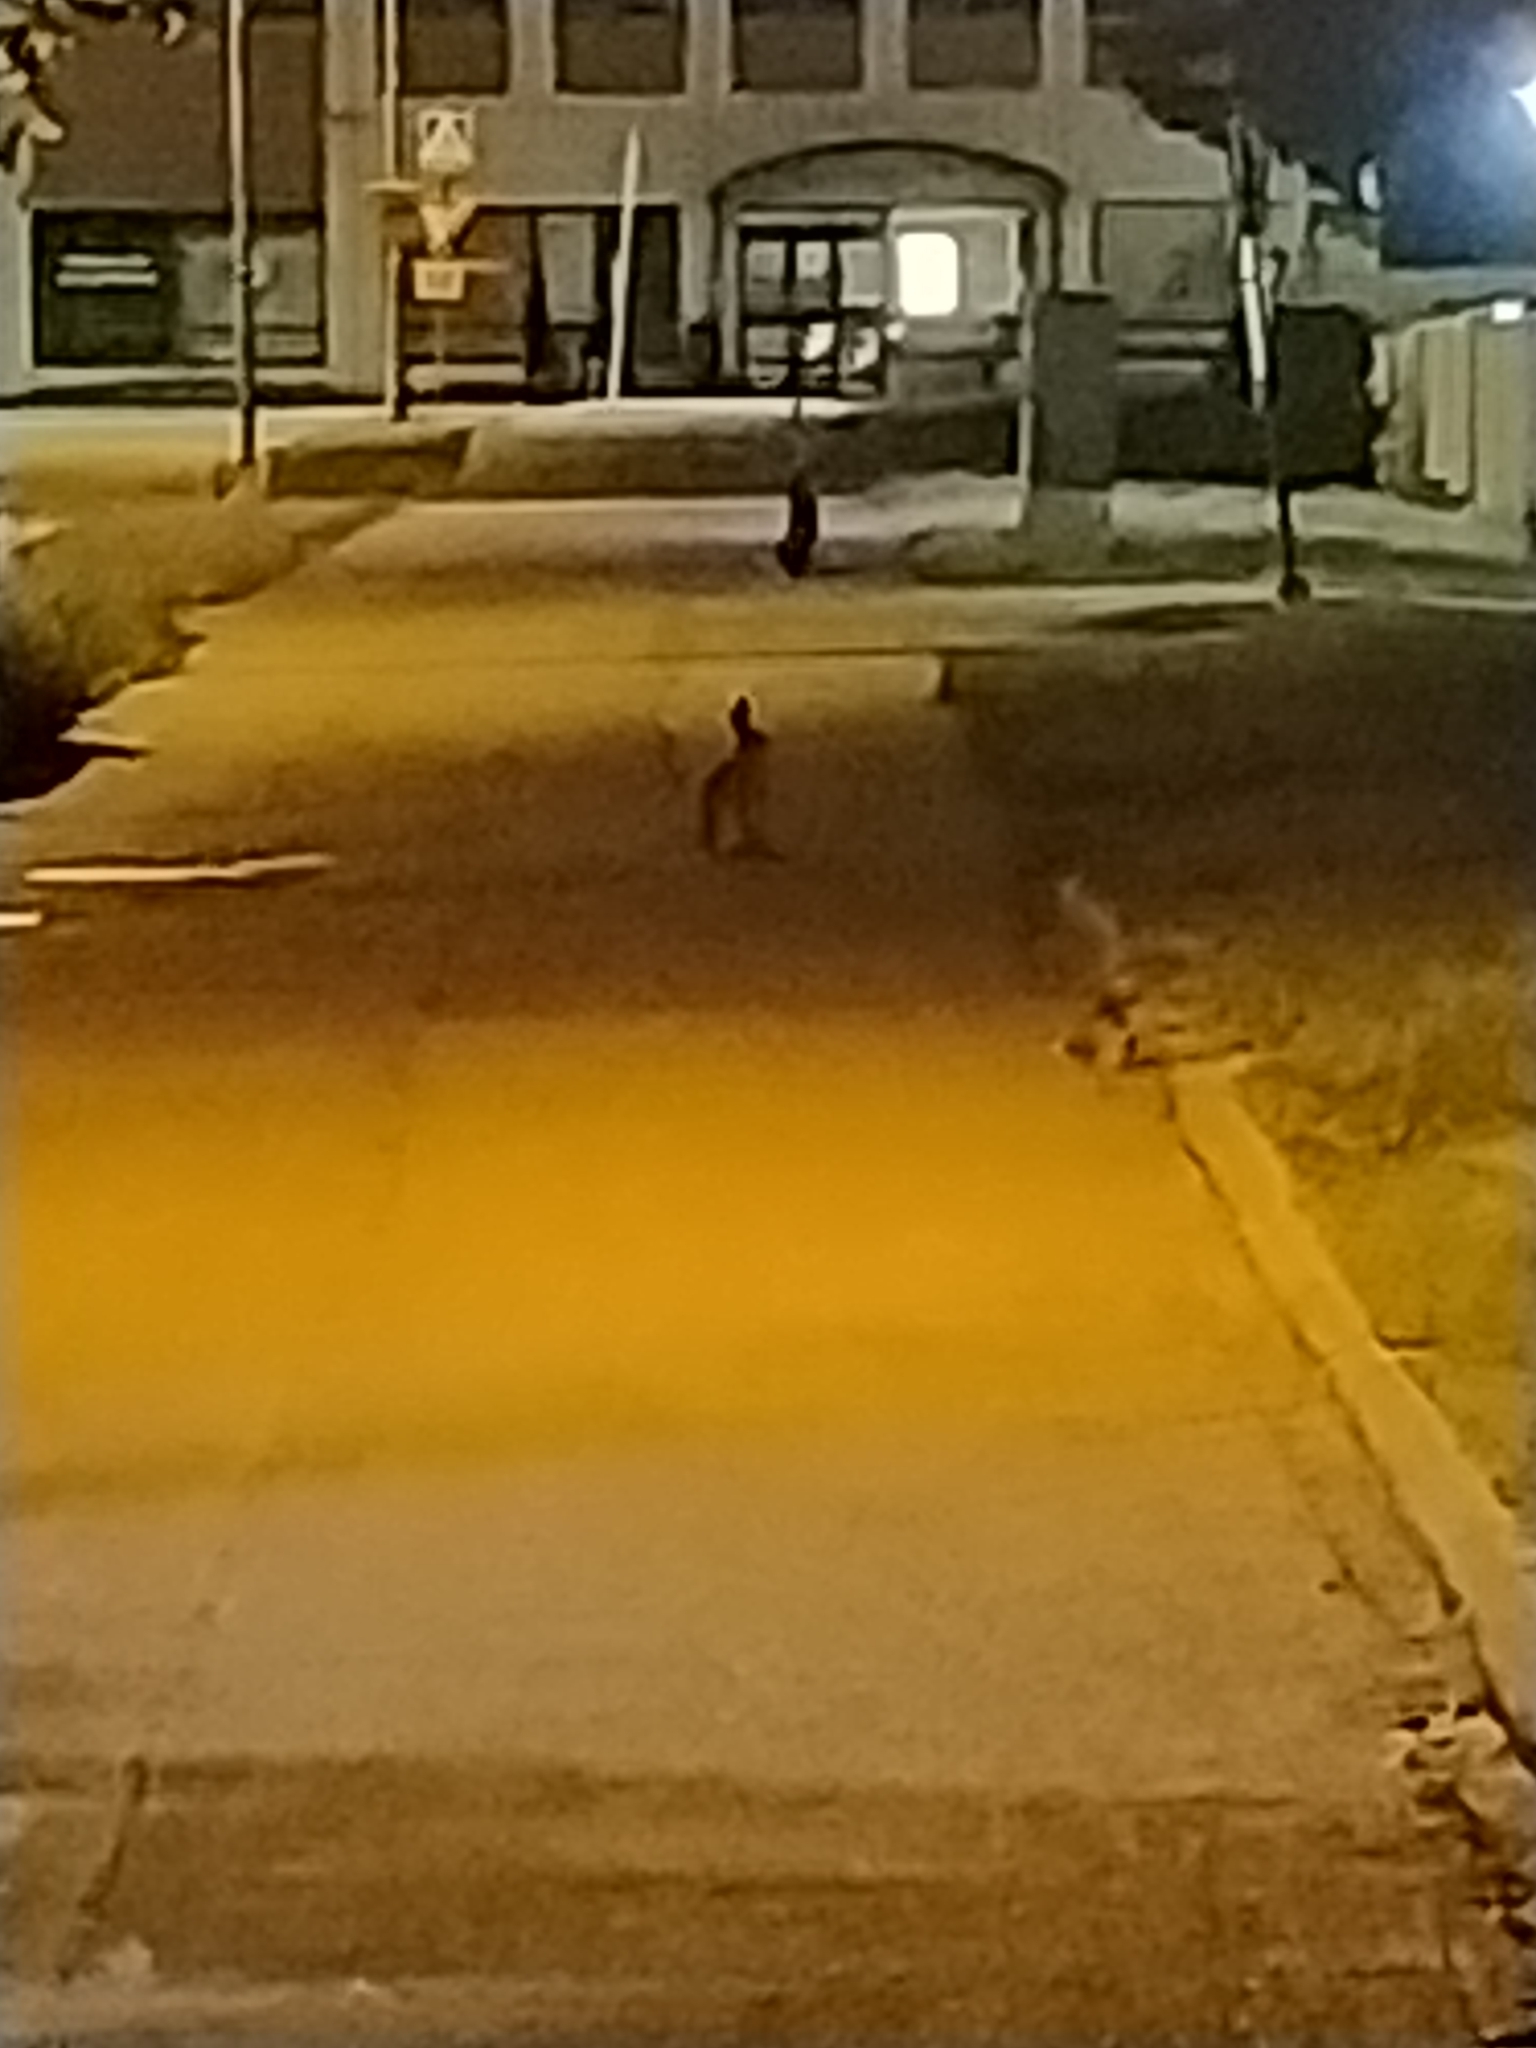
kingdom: Animalia
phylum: Chordata
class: Mammalia
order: Lagomorpha
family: Leporidae
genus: Lepus
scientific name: Lepus europaeus
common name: European hare
